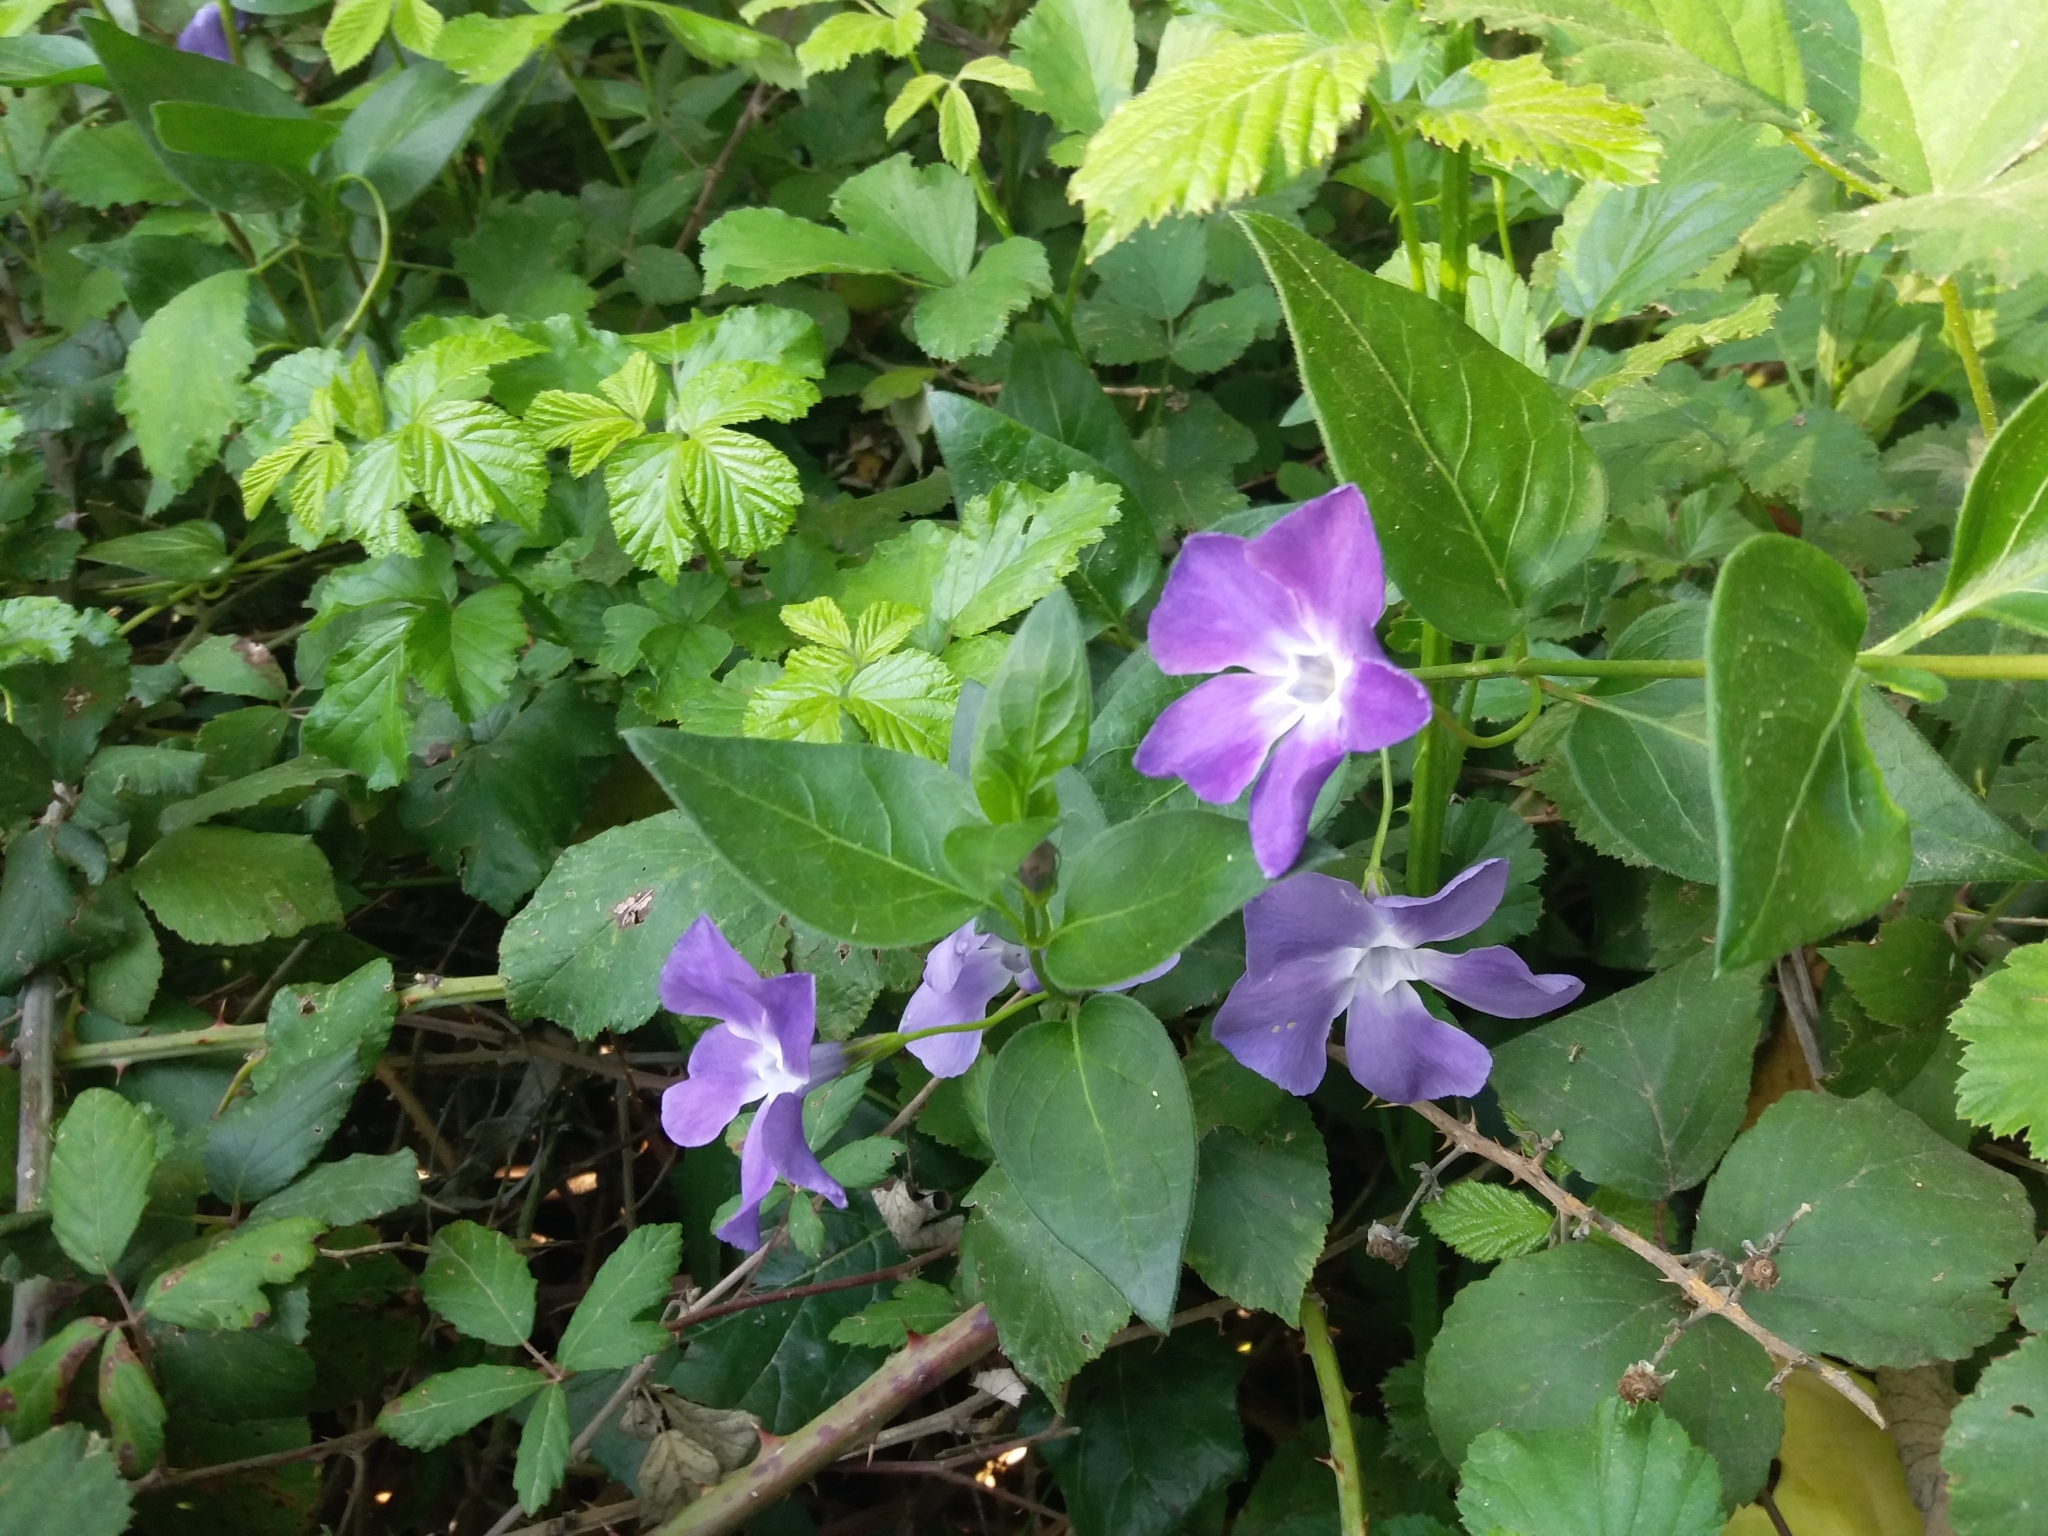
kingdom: Plantae
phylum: Tracheophyta
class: Magnoliopsida
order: Gentianales
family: Apocynaceae
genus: Vinca
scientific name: Vinca major
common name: Greater periwinkle
